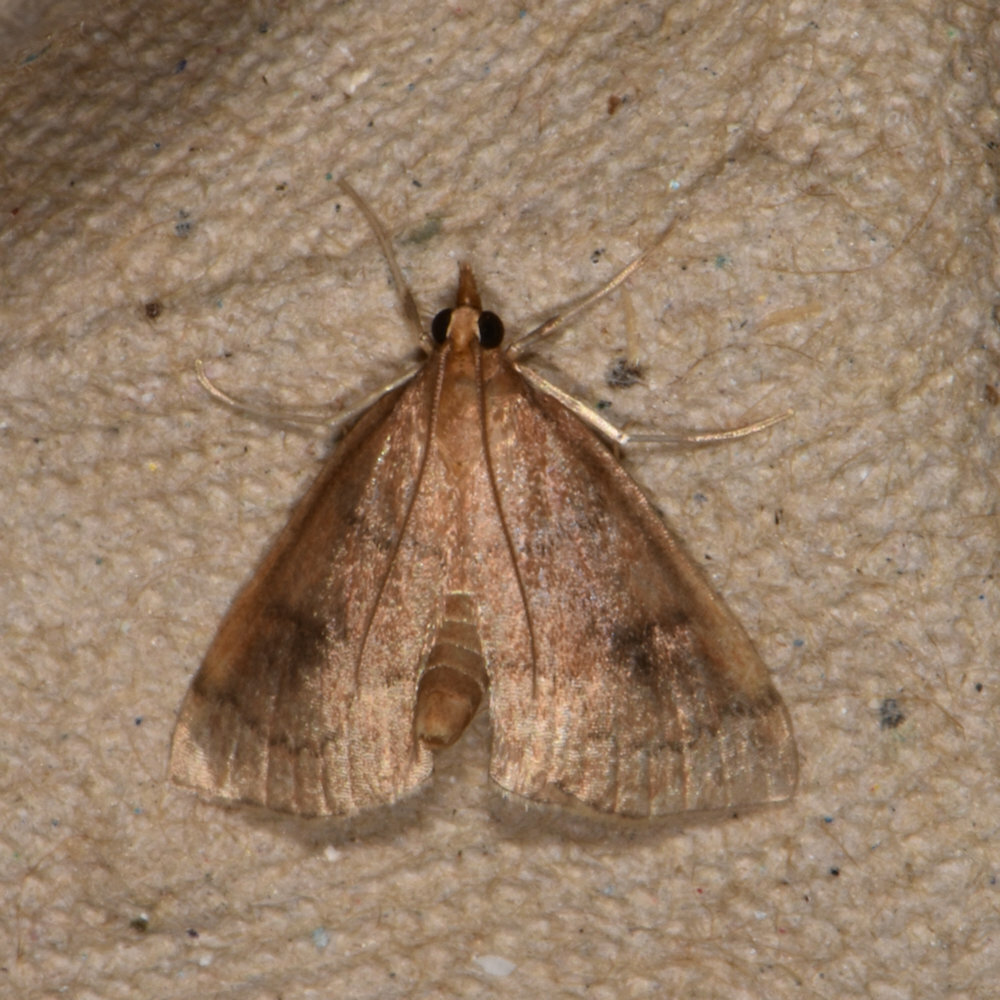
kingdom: Animalia
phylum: Arthropoda
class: Insecta
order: Lepidoptera
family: Crambidae
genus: Fumibotys
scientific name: Fumibotys fumalis
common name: Mint root borer moth
